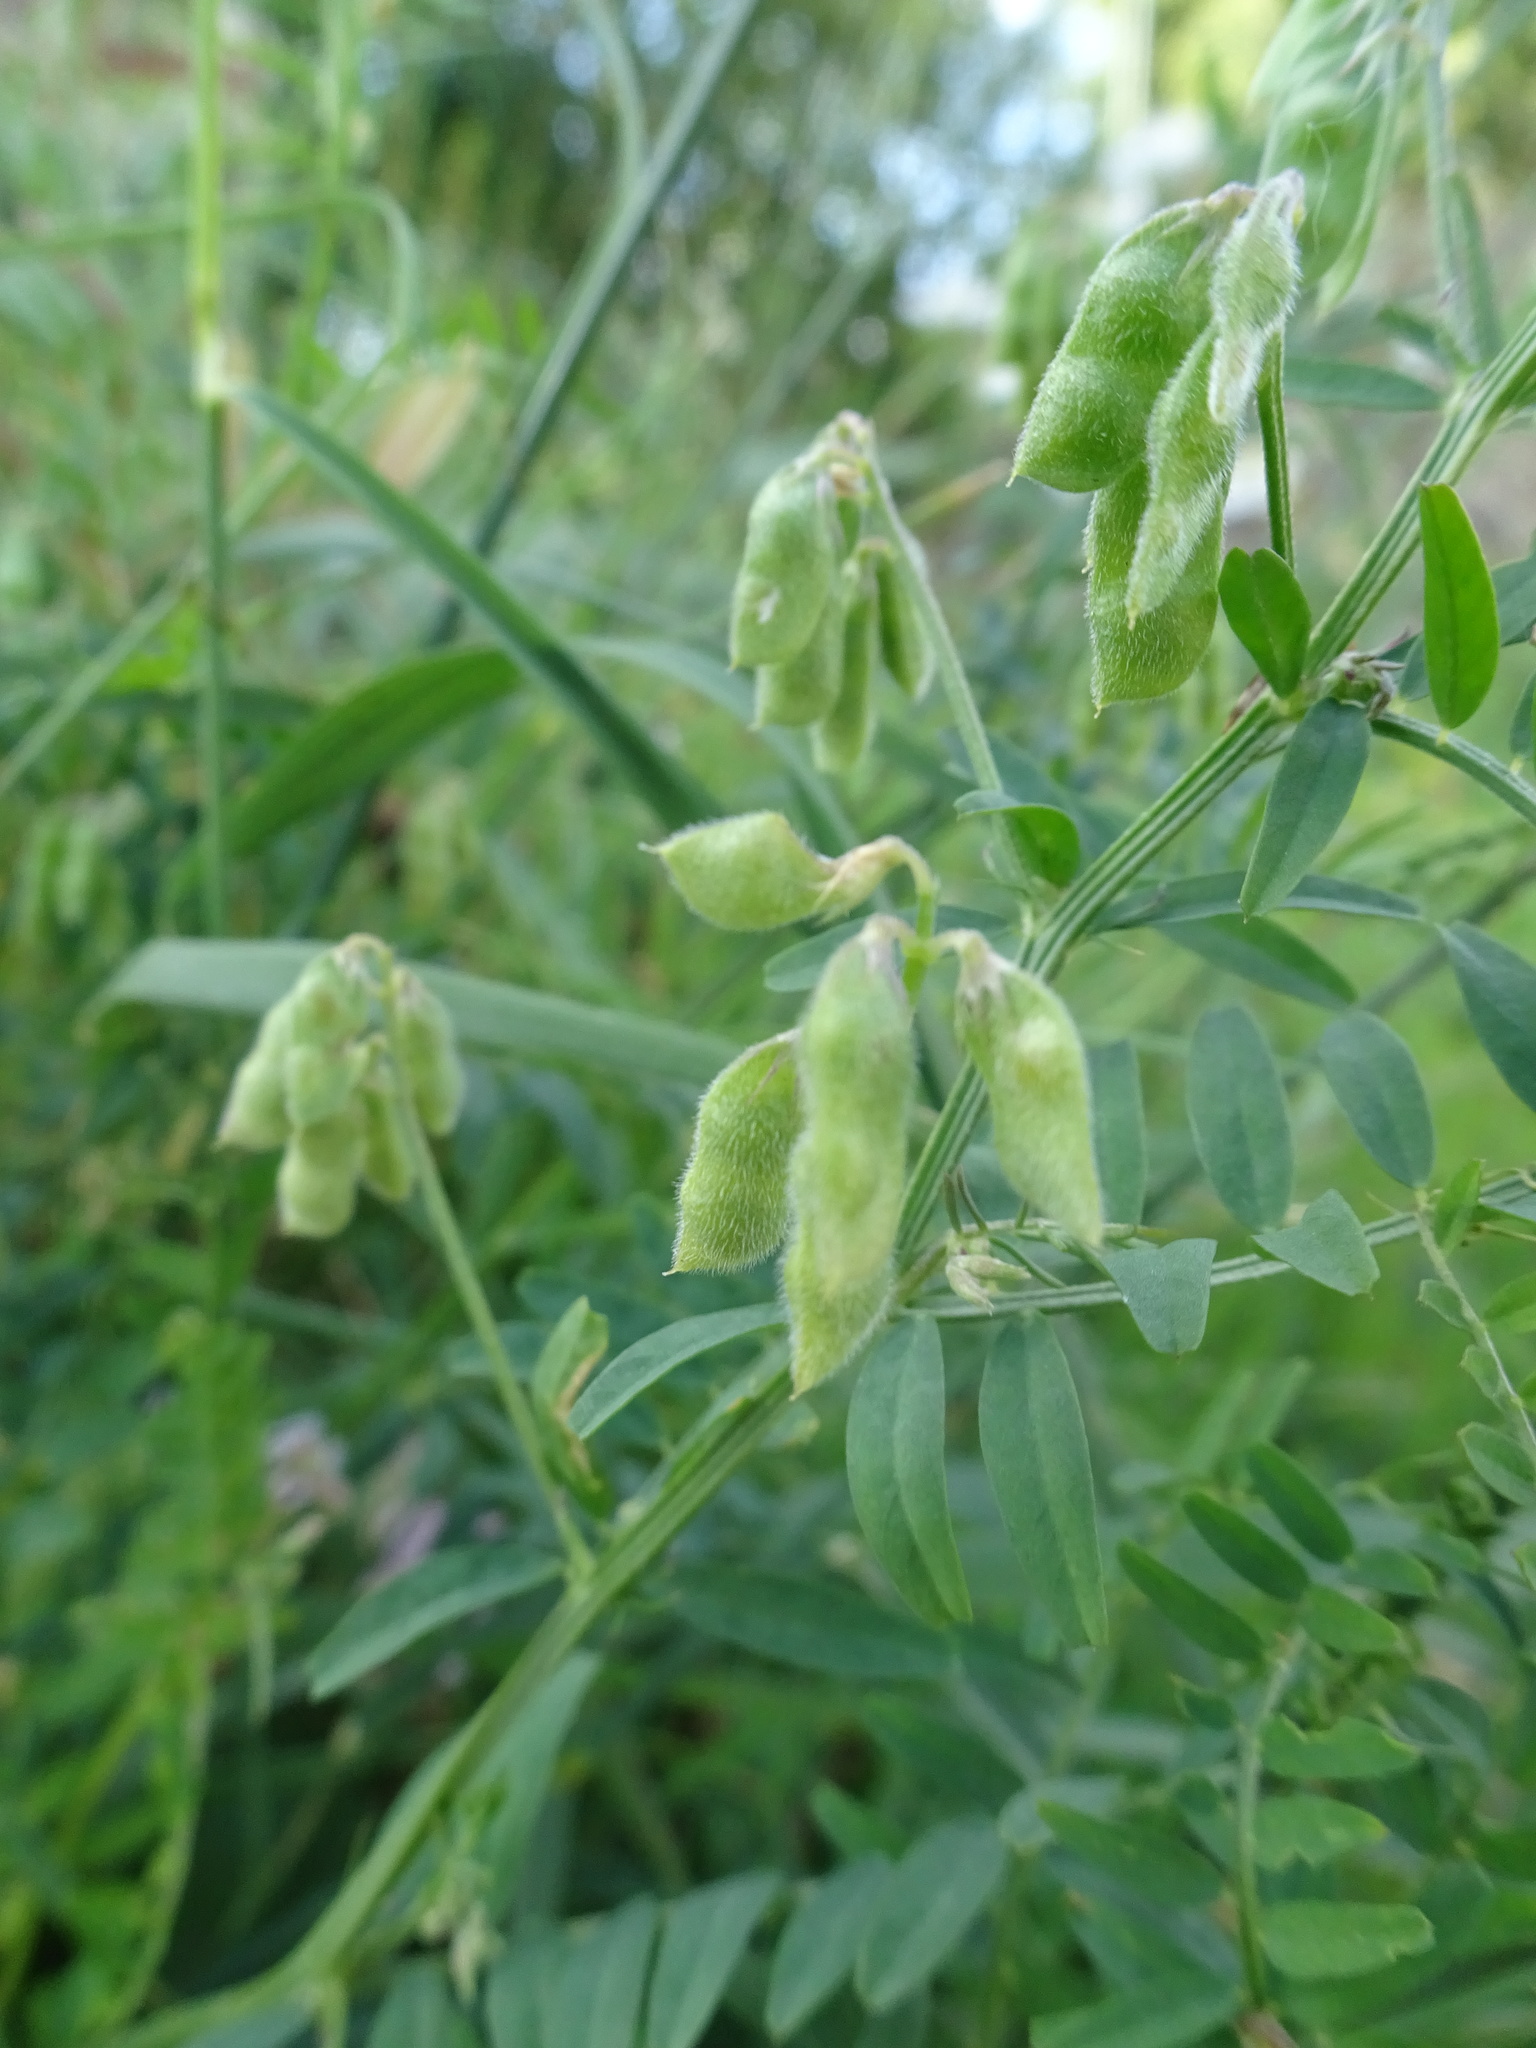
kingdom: Plantae
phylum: Tracheophyta
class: Magnoliopsida
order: Fabales
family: Fabaceae
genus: Vicia
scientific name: Vicia hirsuta
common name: Tiny vetch
